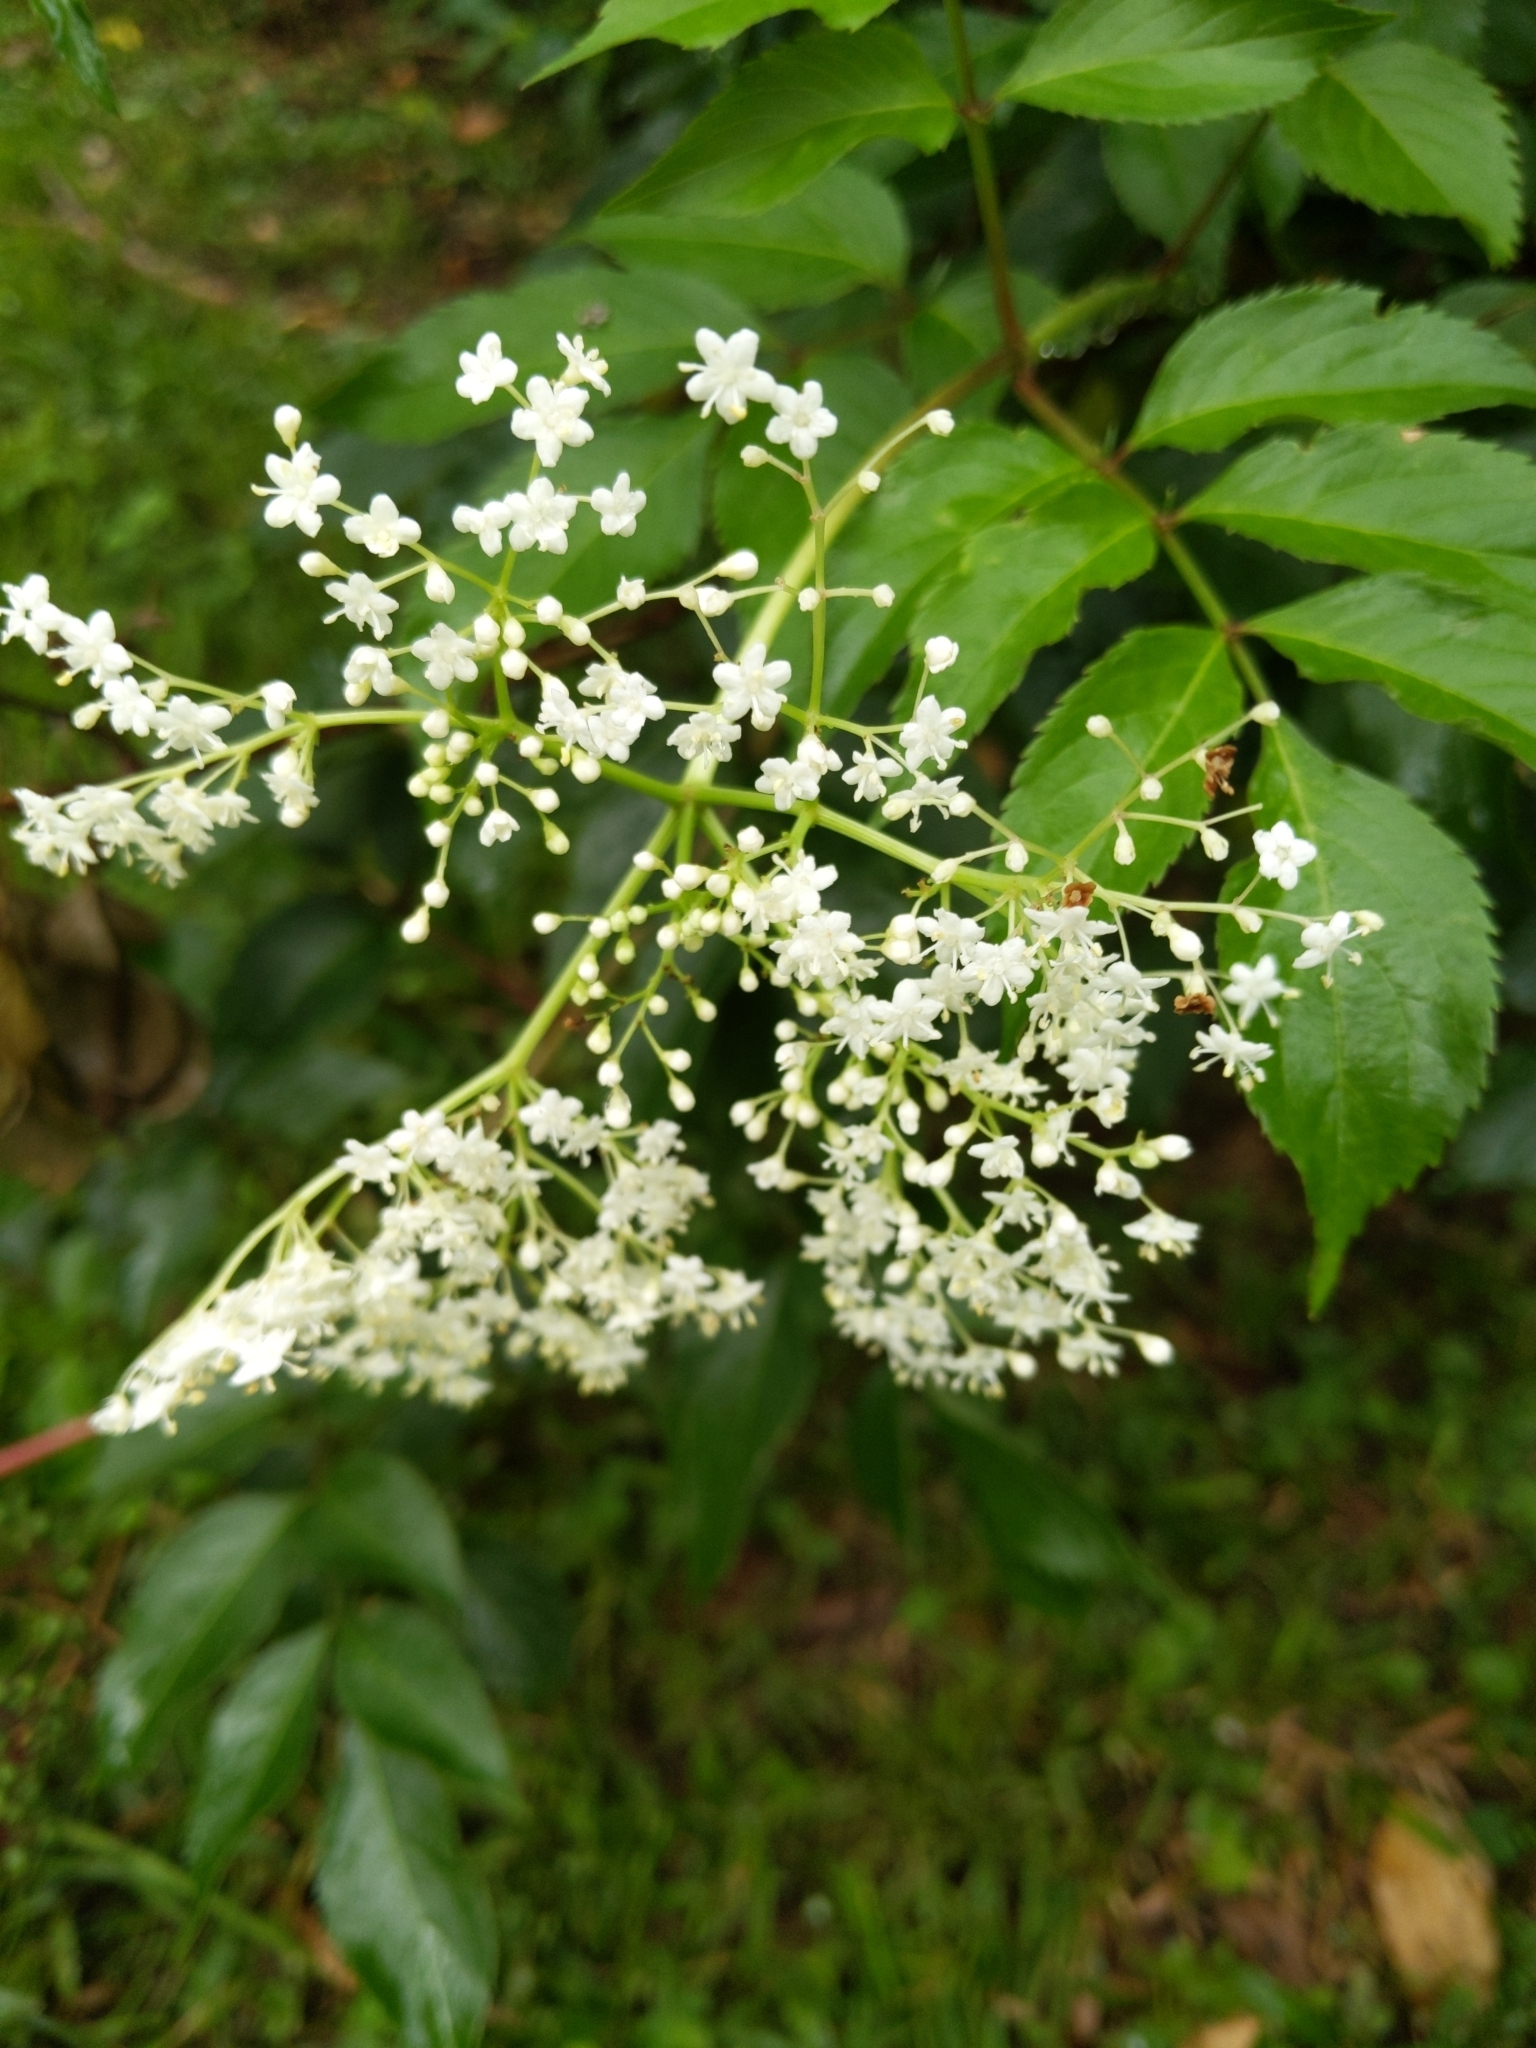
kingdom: Plantae
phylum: Tracheophyta
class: Magnoliopsida
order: Dipsacales
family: Viburnaceae
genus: Sambucus
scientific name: Sambucus canadensis
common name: American elder
